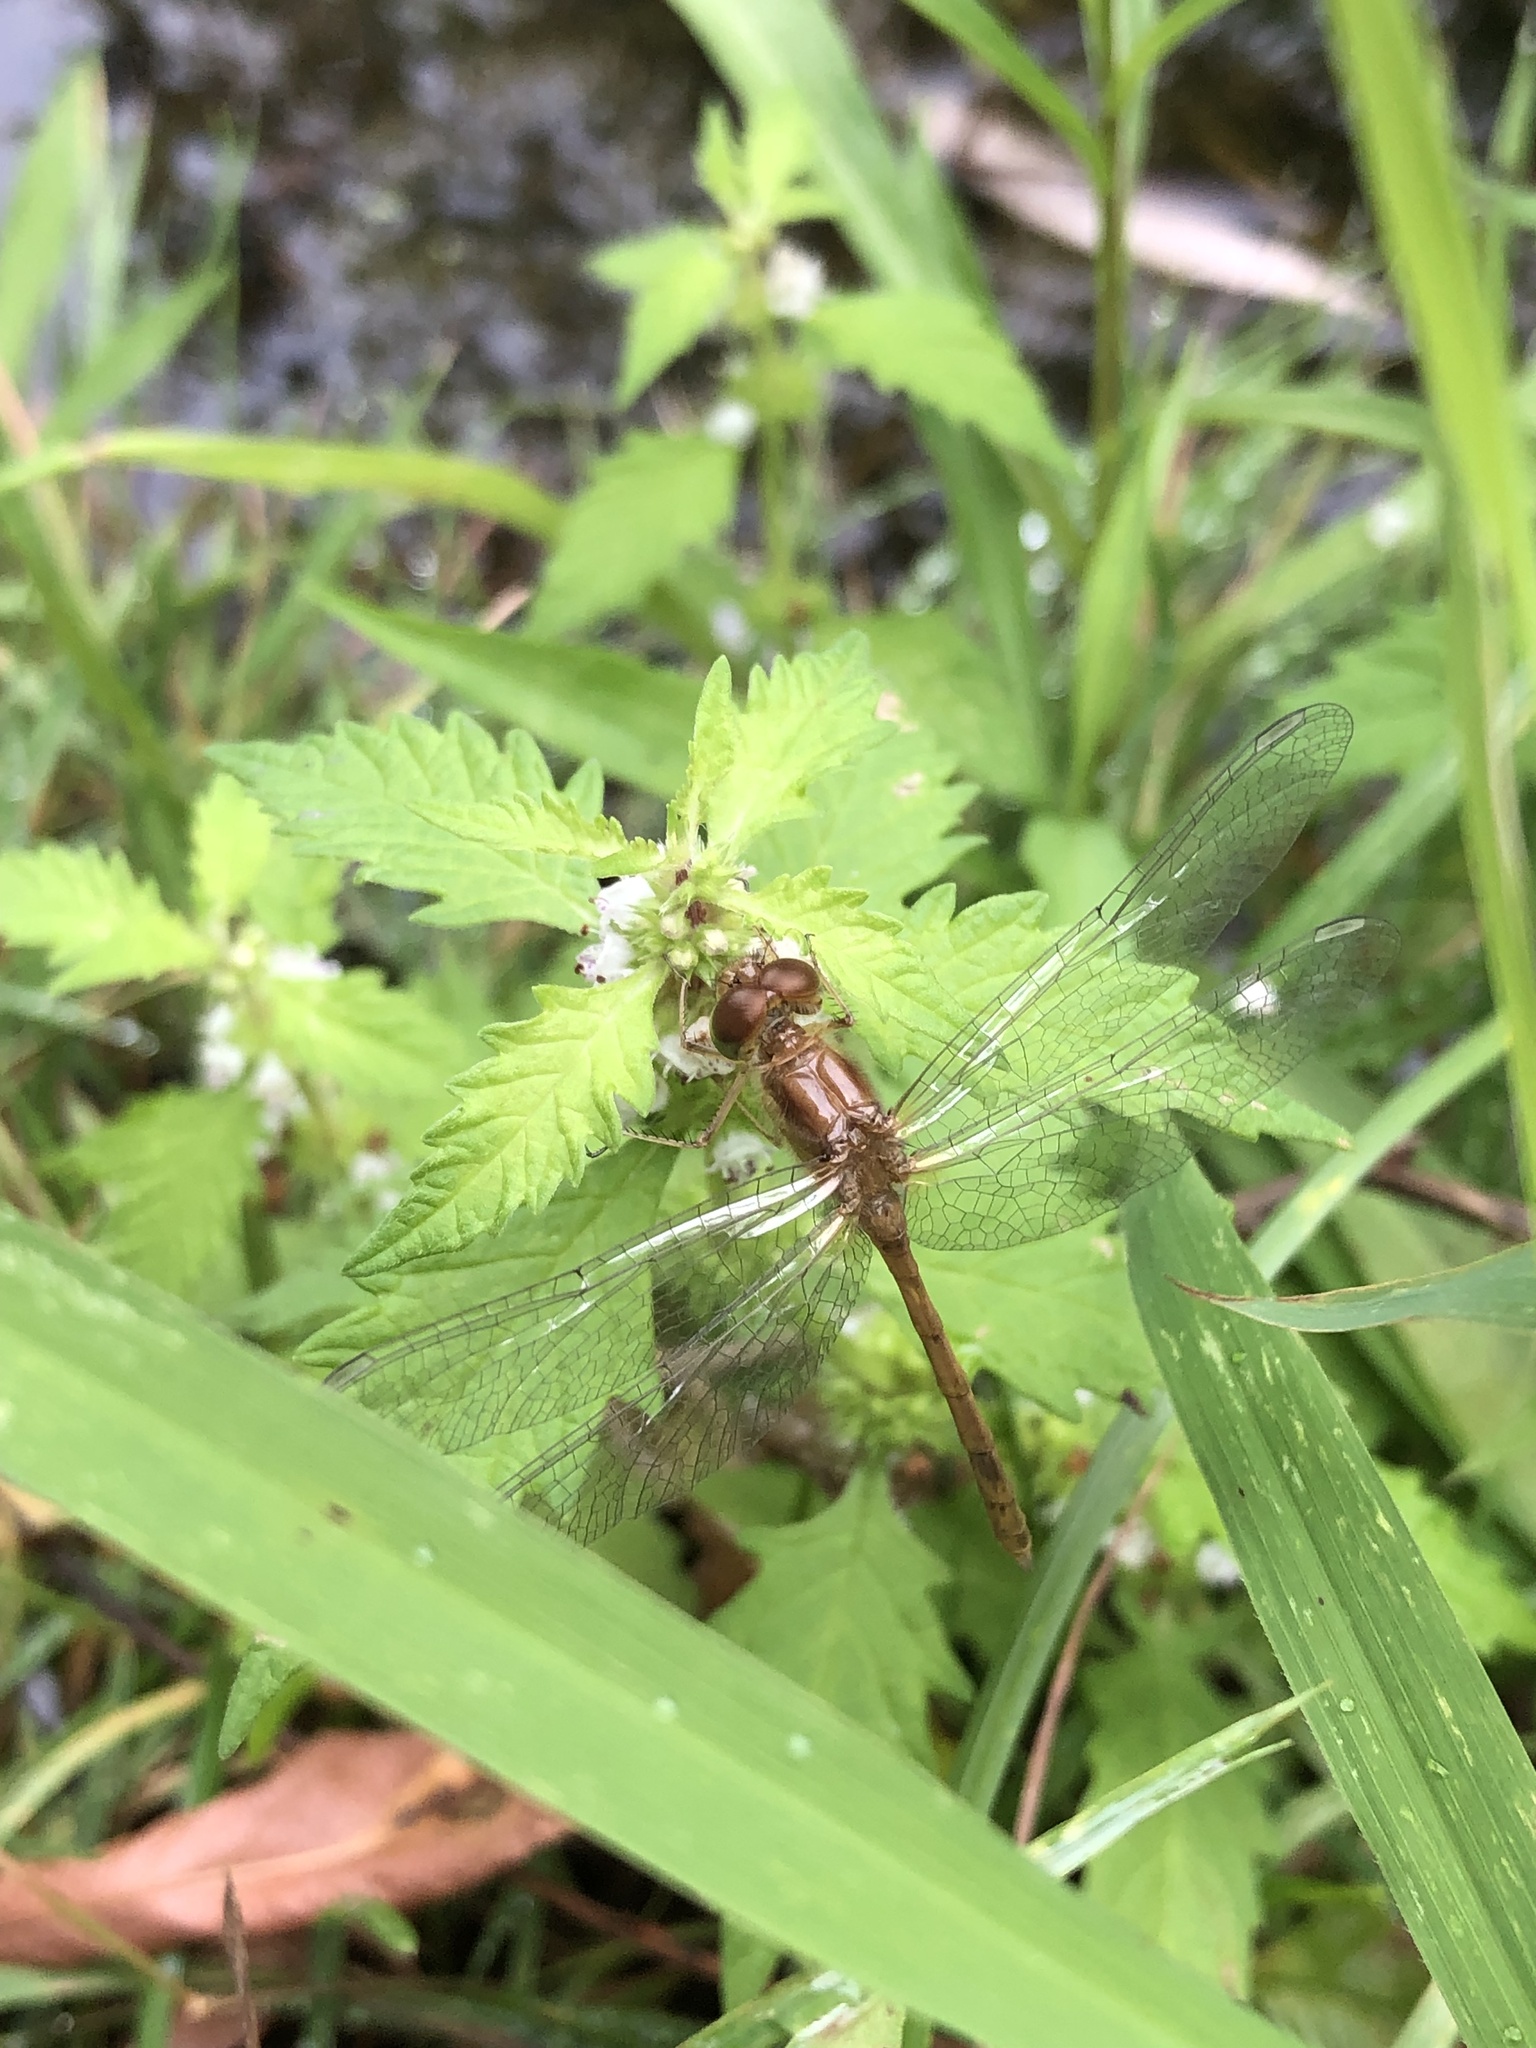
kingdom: Animalia
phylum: Arthropoda
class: Insecta
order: Odonata
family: Libellulidae
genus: Sympetrum
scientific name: Sympetrum vicinum
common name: Autumn meadowhawk
